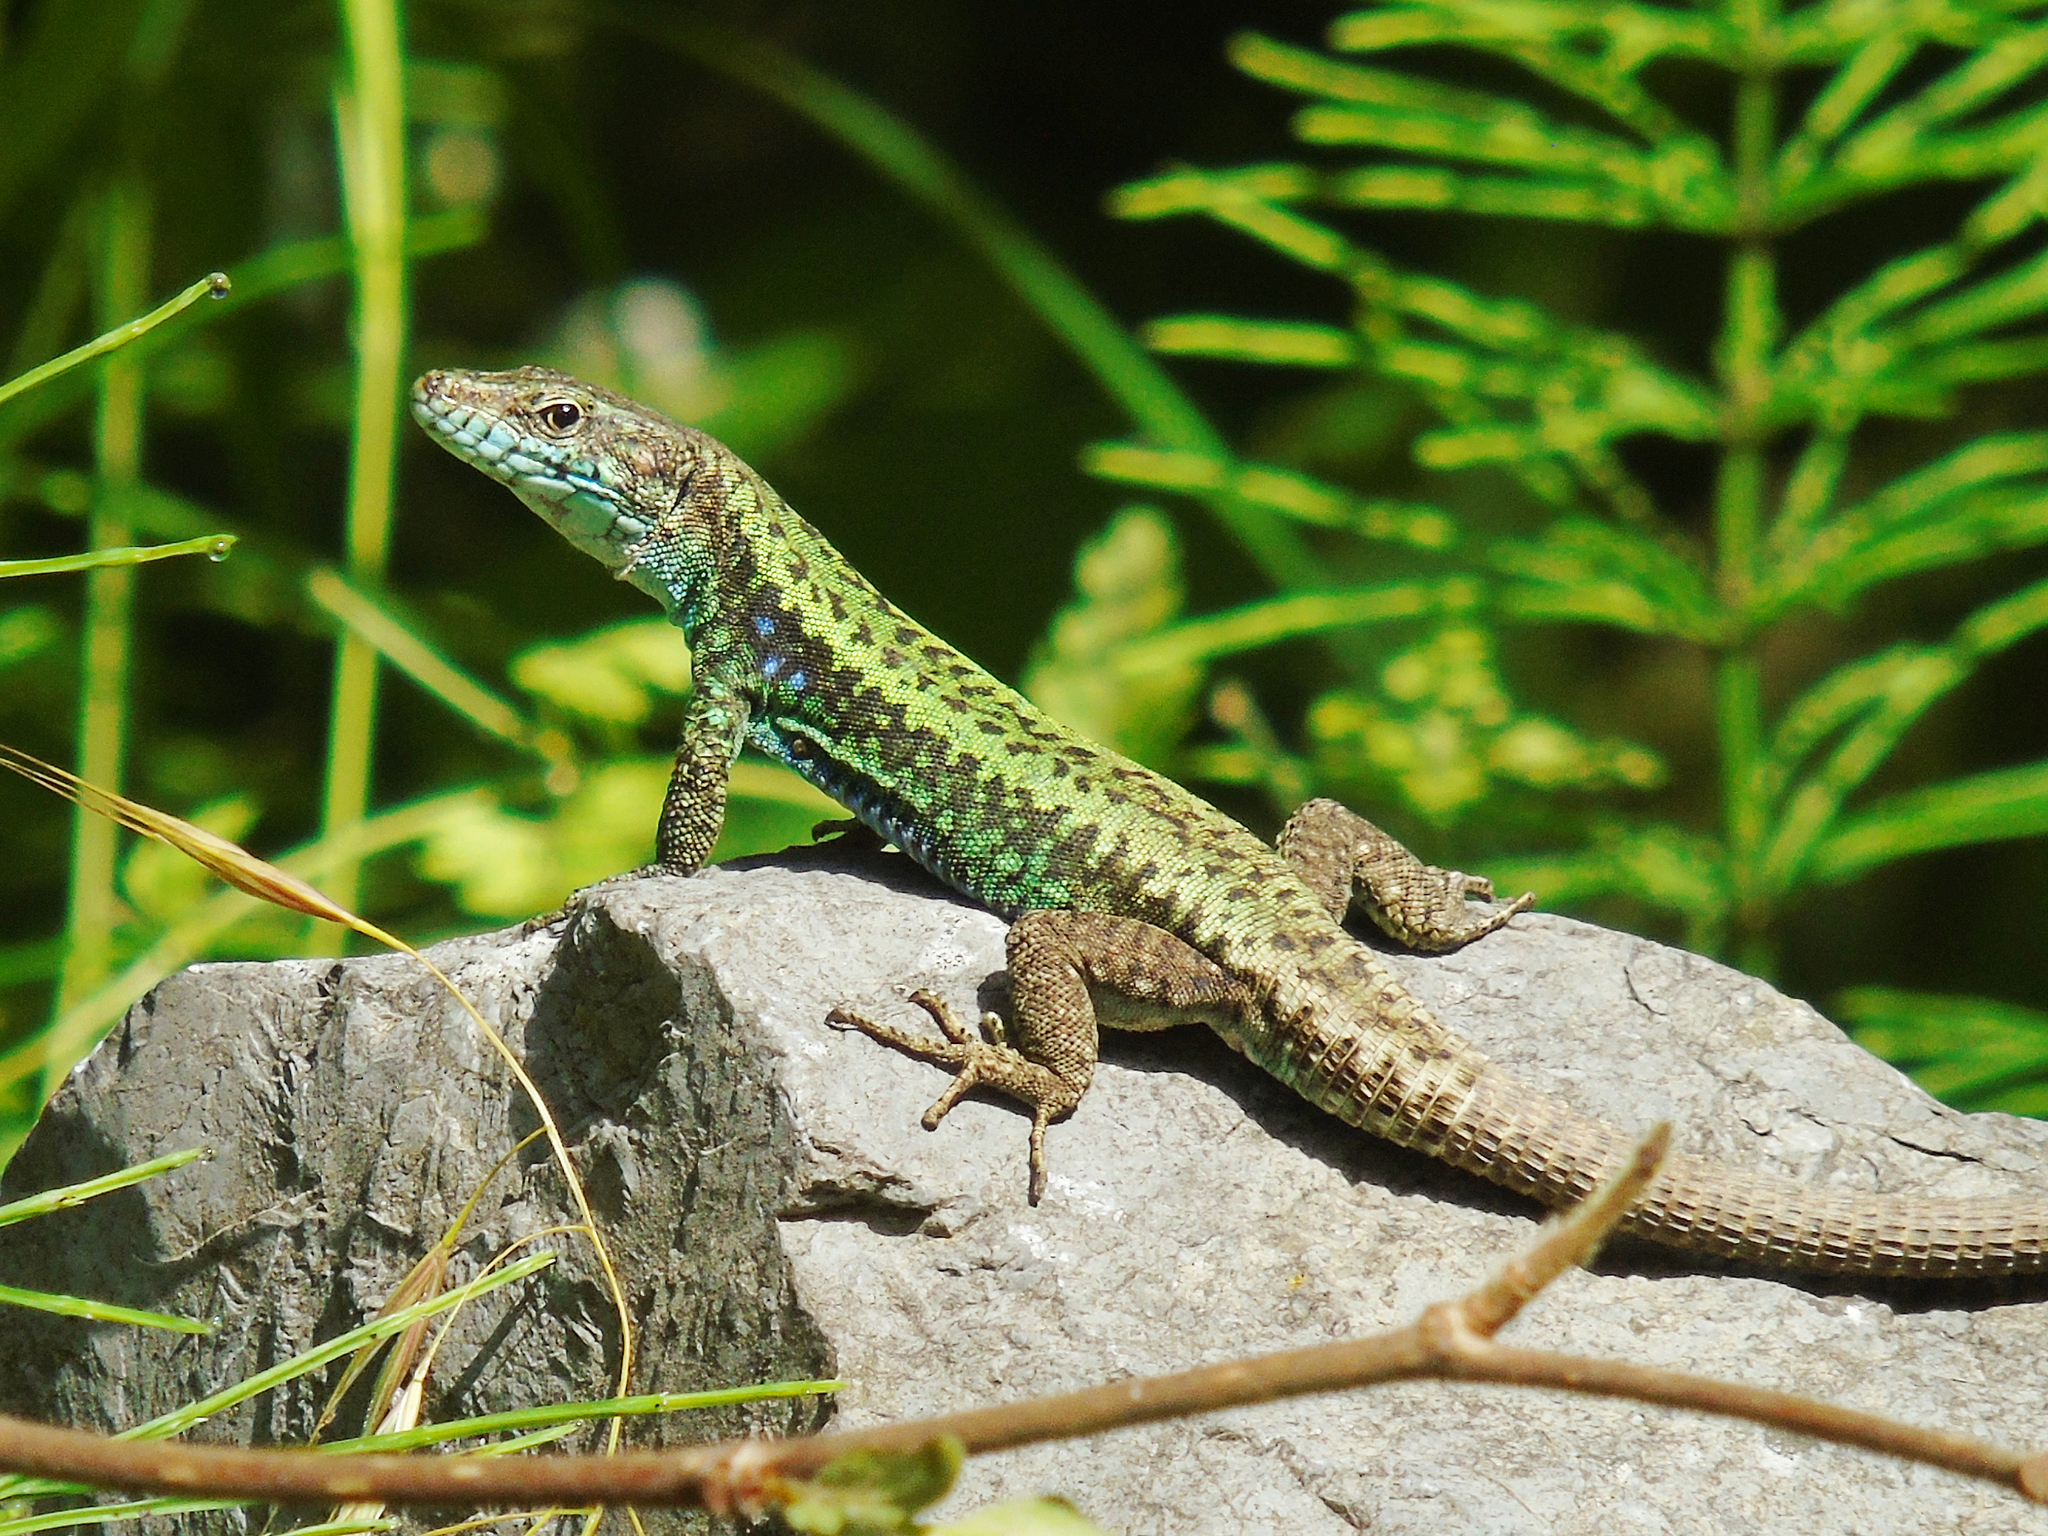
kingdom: Animalia
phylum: Chordata
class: Squamata
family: Lacertidae
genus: Darevskia
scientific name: Darevskia rudis
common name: Spiny-tailed lizard
